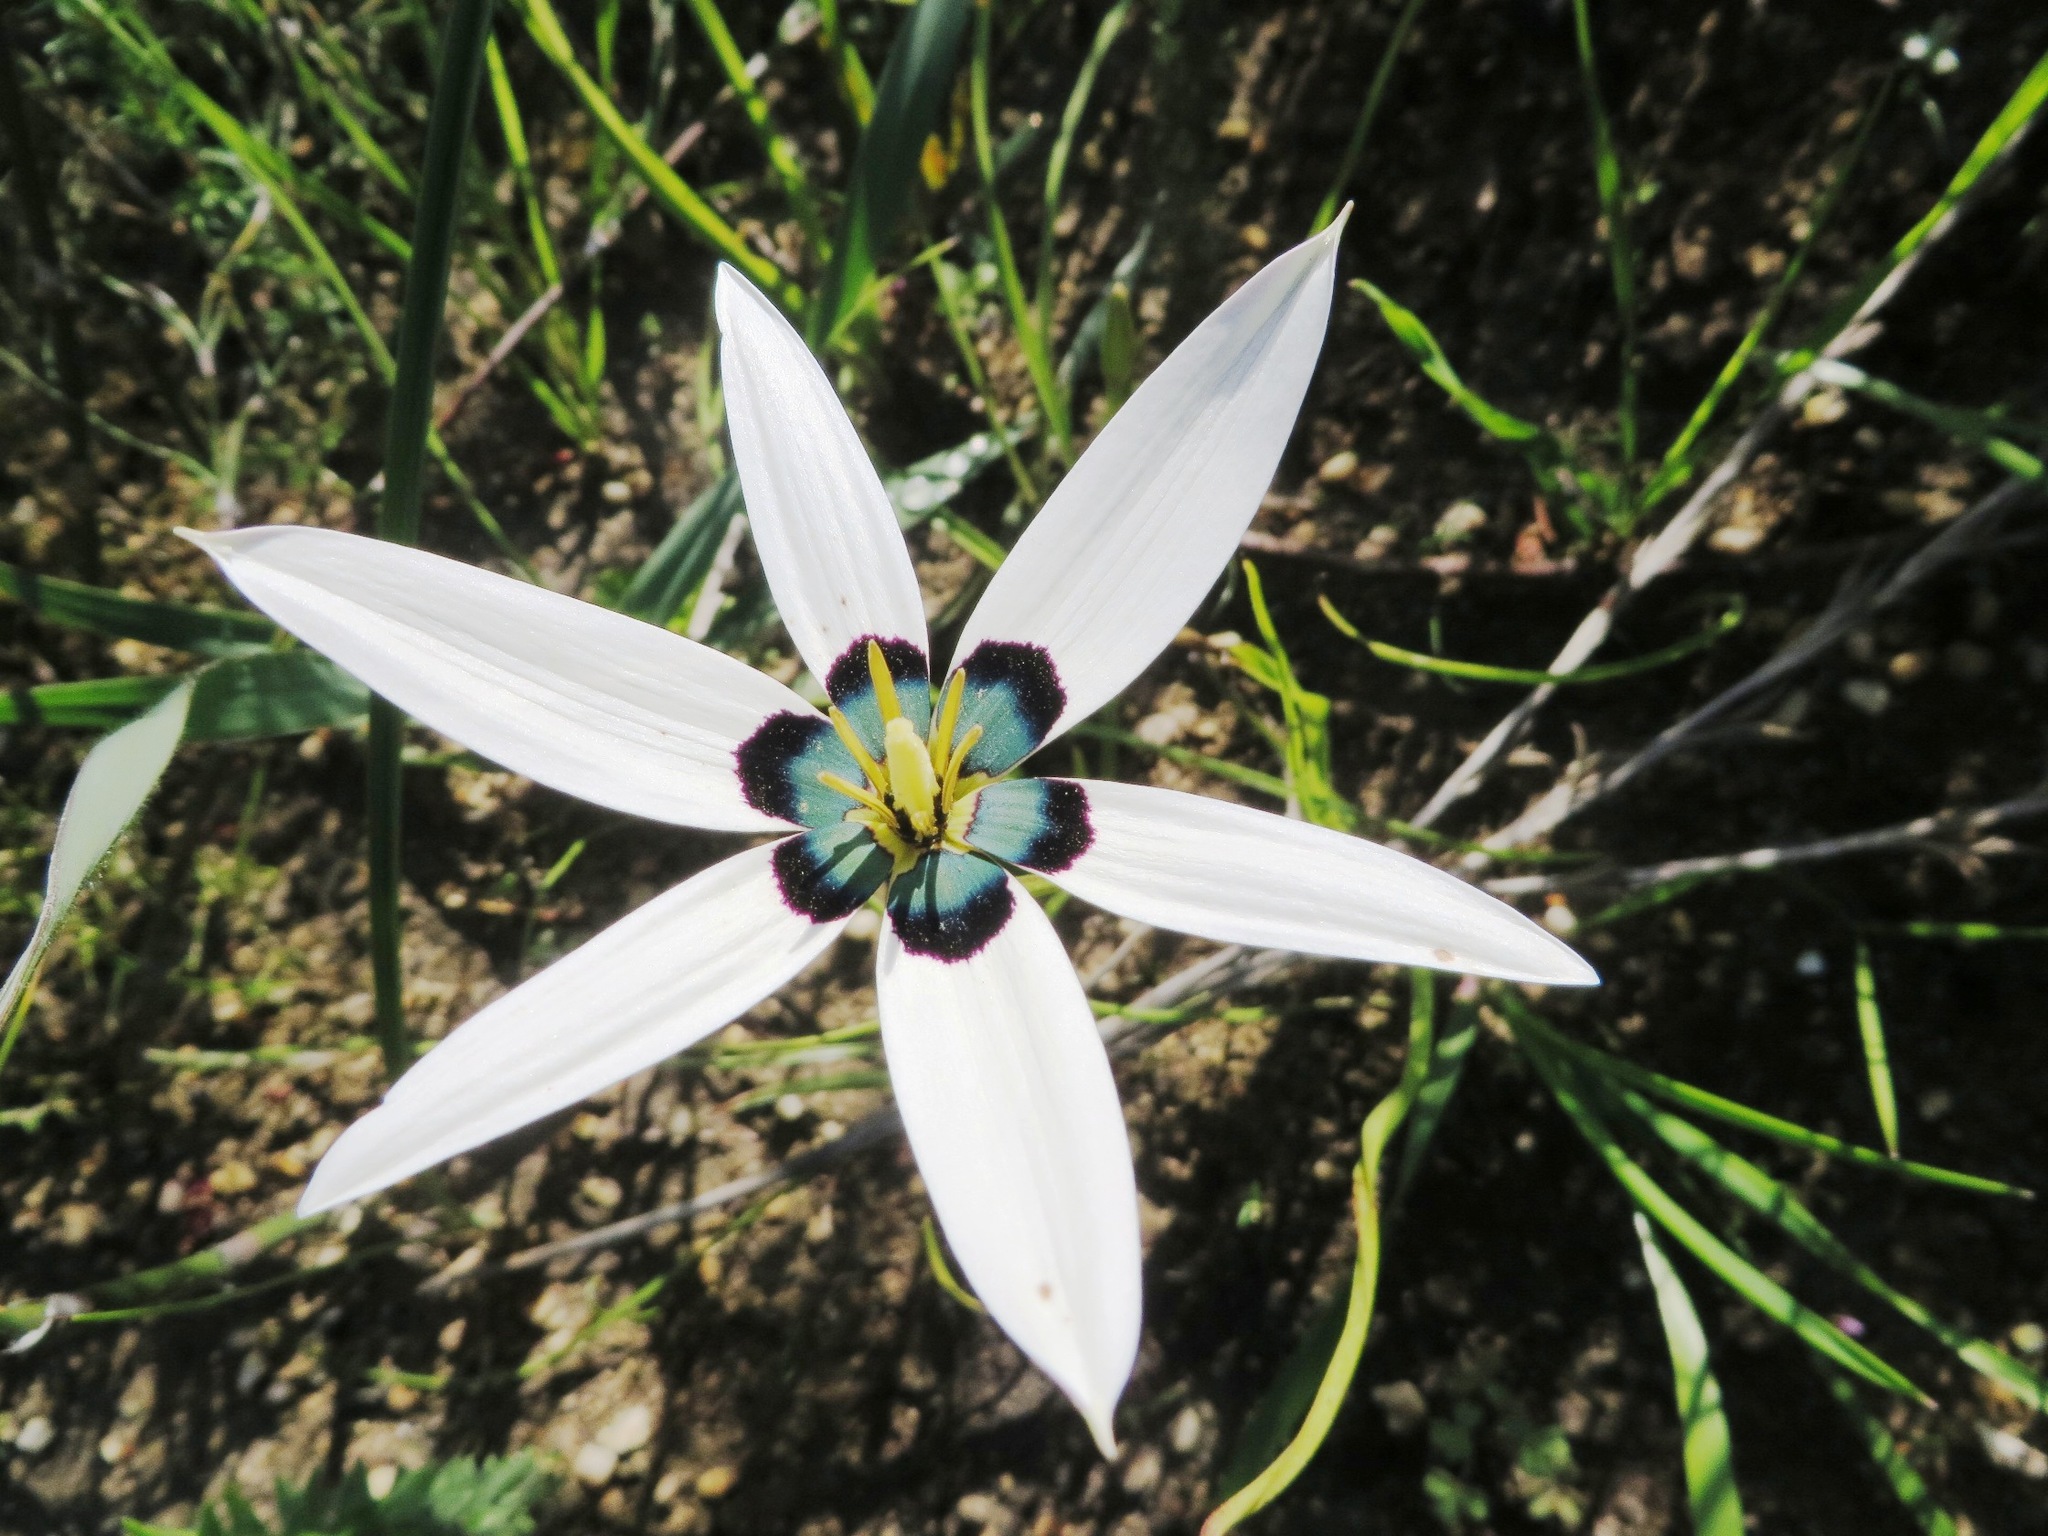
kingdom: Plantae
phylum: Tracheophyta
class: Liliopsida
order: Asparagales
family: Hypoxidaceae
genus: Pauridia
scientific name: Pauridia capensis
